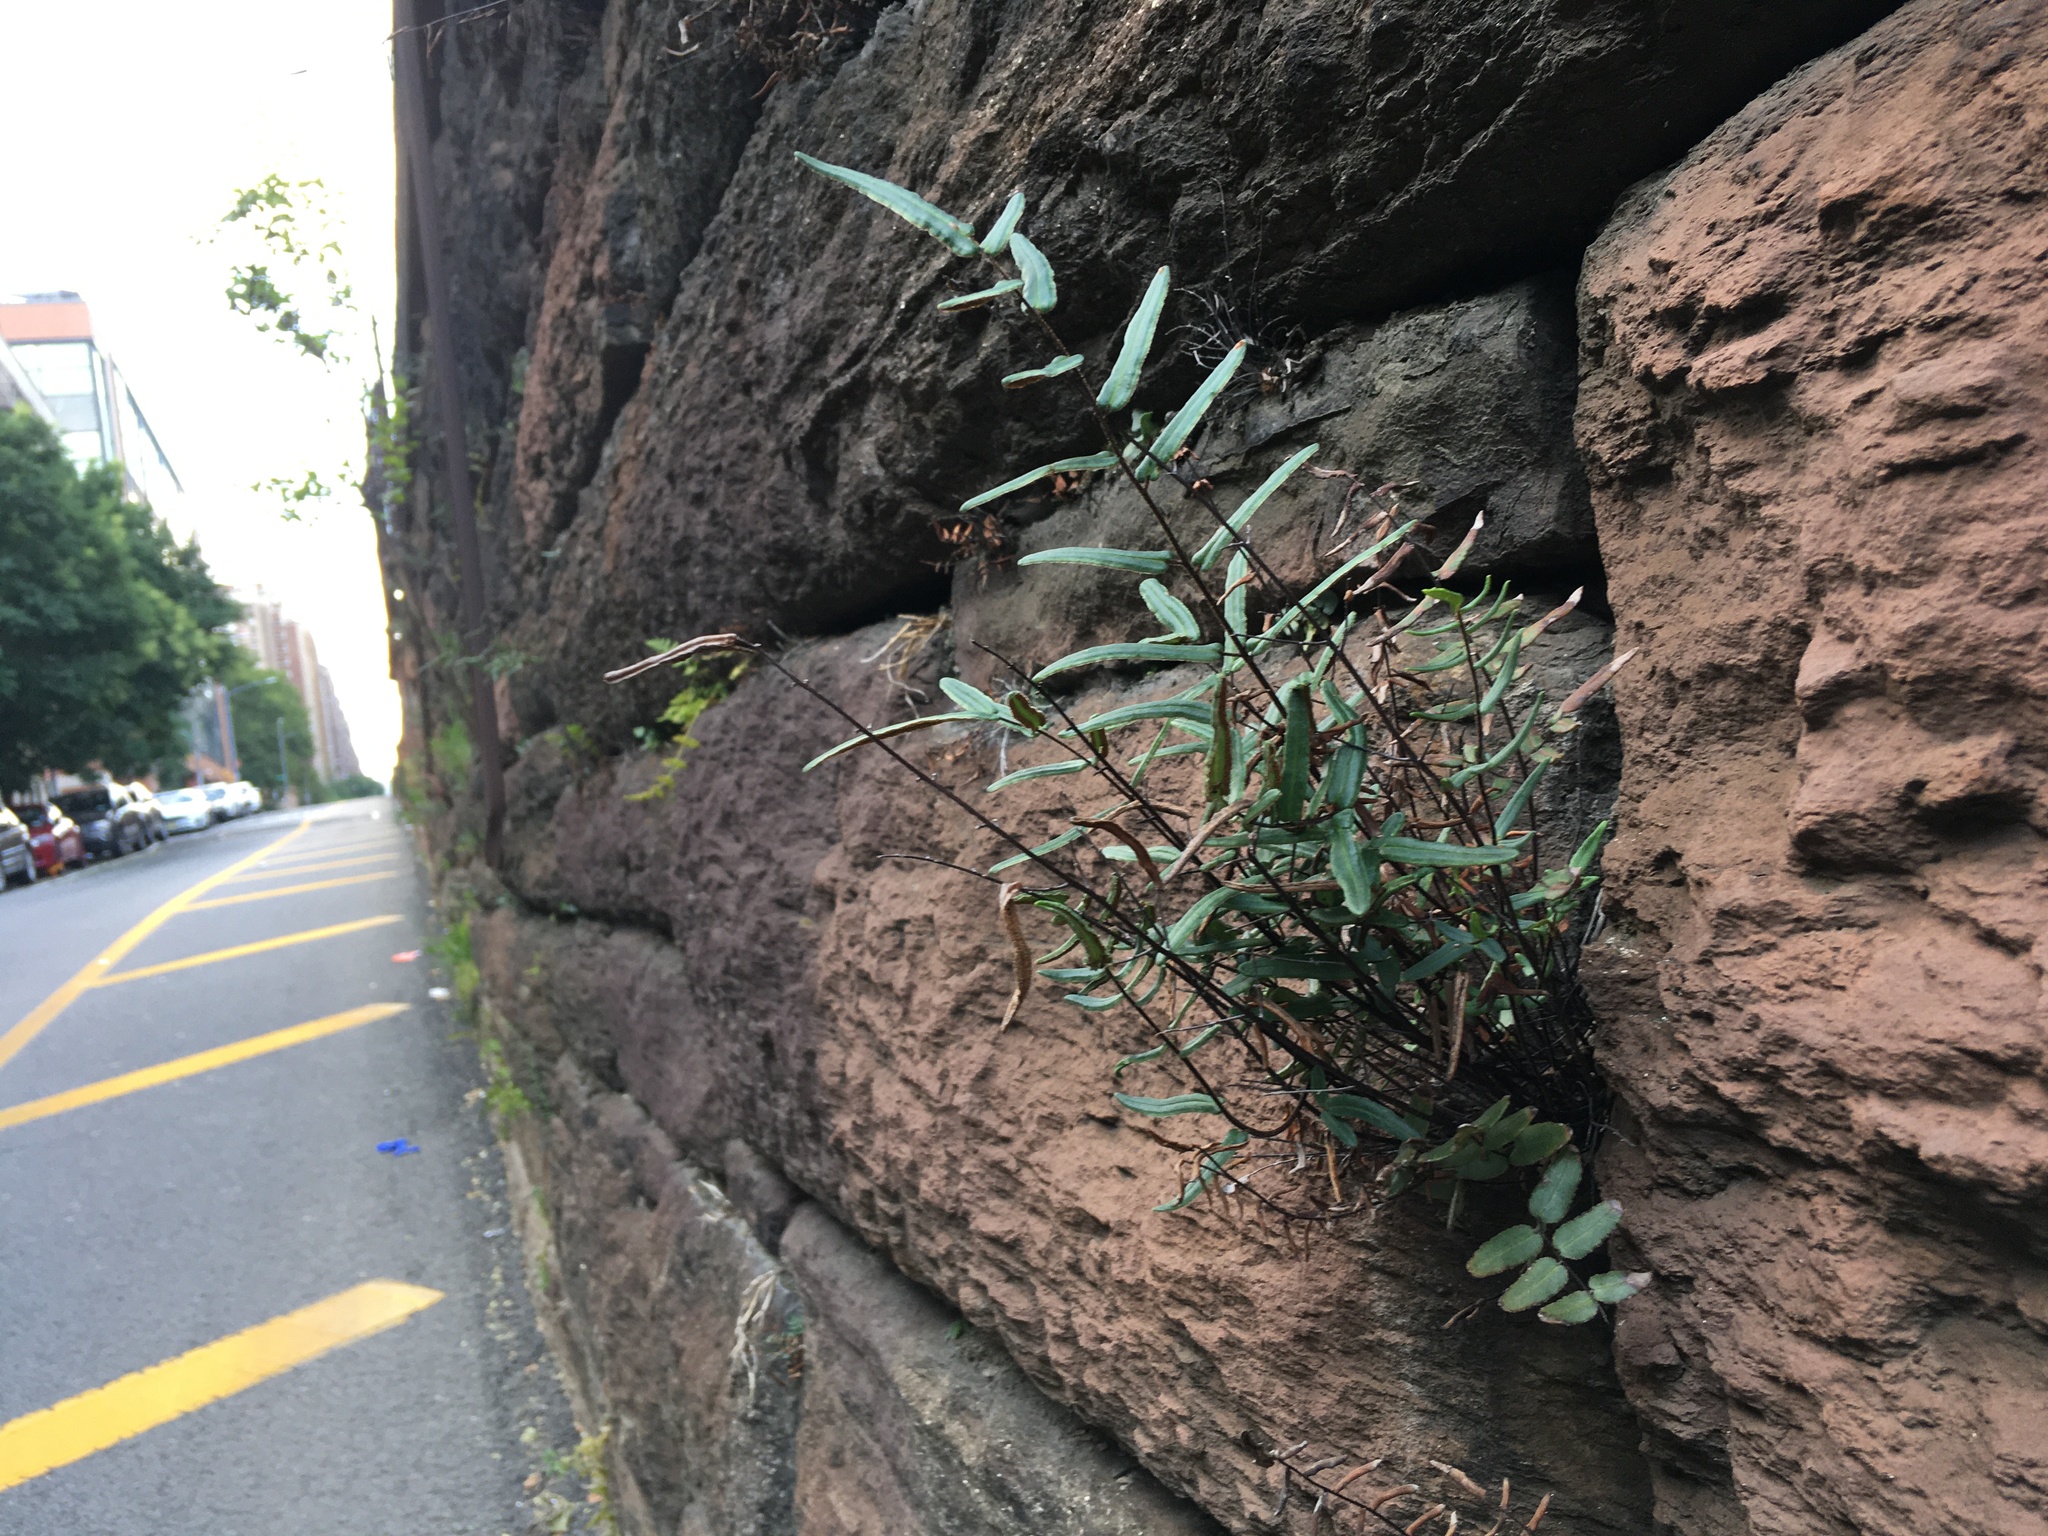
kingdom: Plantae
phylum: Tracheophyta
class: Polypodiopsida
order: Polypodiales
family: Pteridaceae
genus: Pellaea
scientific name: Pellaea atropurpurea
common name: Hairy cliffbrake
